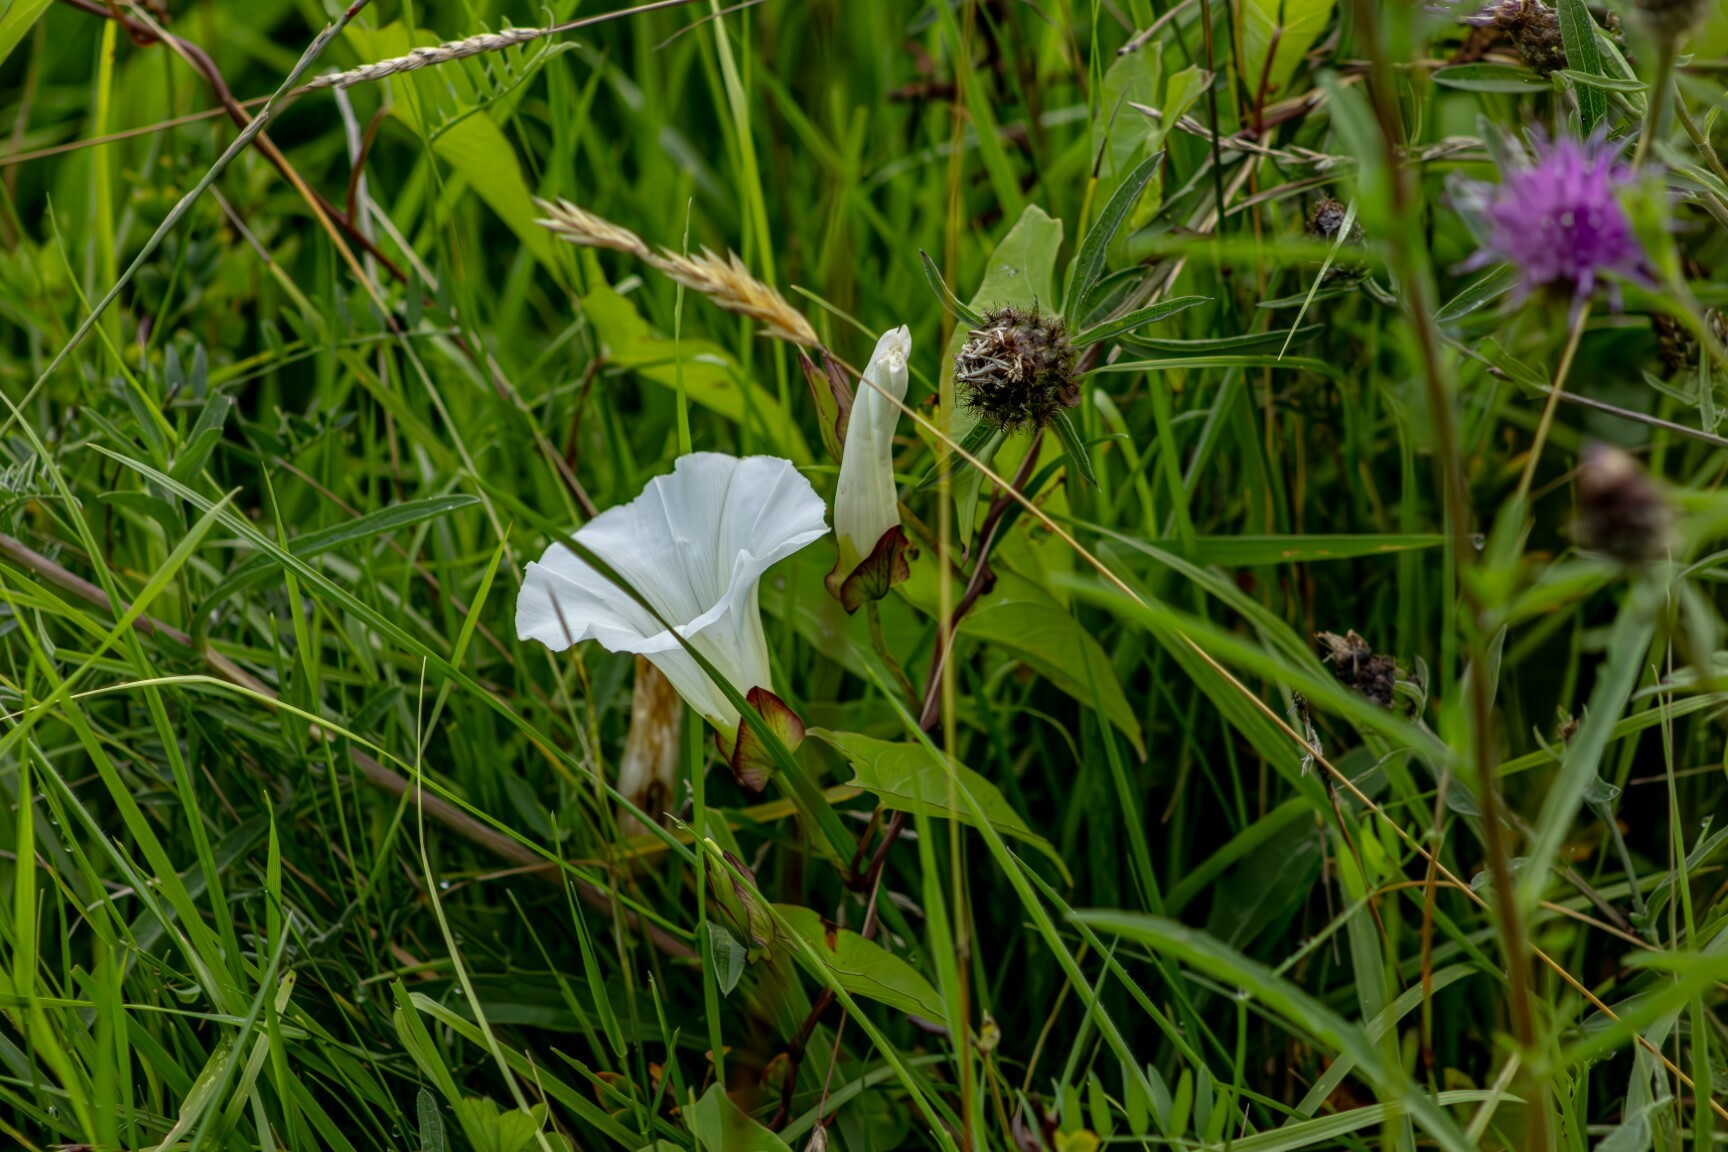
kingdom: Plantae
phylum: Tracheophyta
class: Magnoliopsida
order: Solanales
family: Convolvulaceae
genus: Calystegia
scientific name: Calystegia sepium
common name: Hedge bindweed
